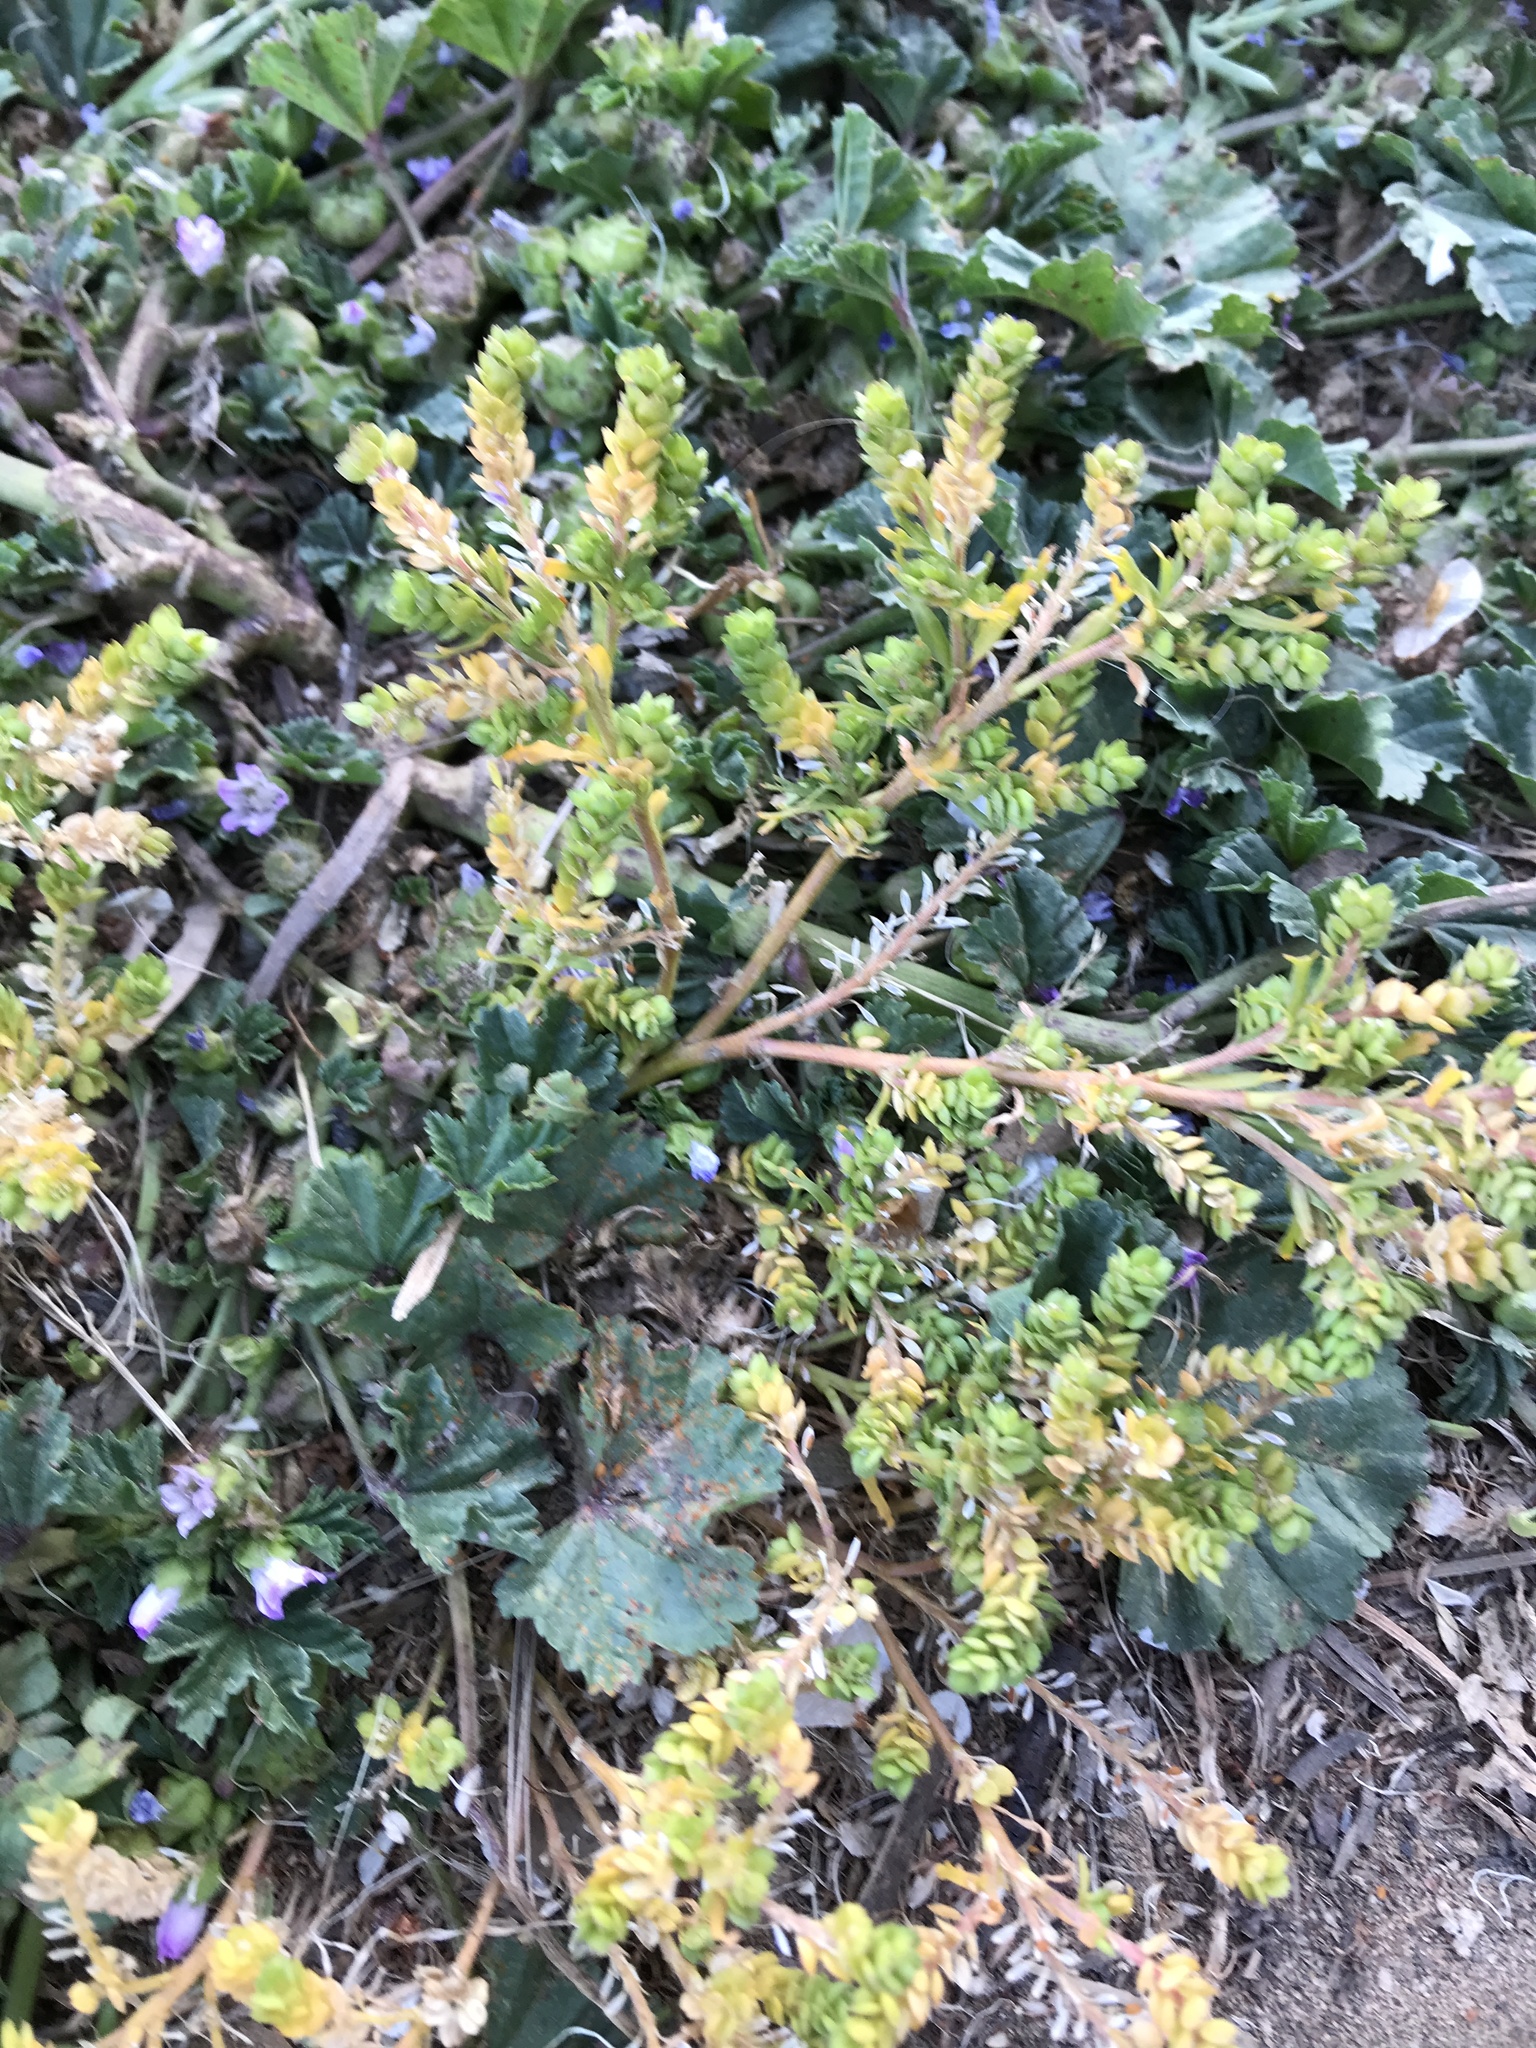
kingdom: Plantae
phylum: Tracheophyta
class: Magnoliopsida
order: Brassicales
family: Brassicaceae
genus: Lepidium
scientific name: Lepidium strictum
